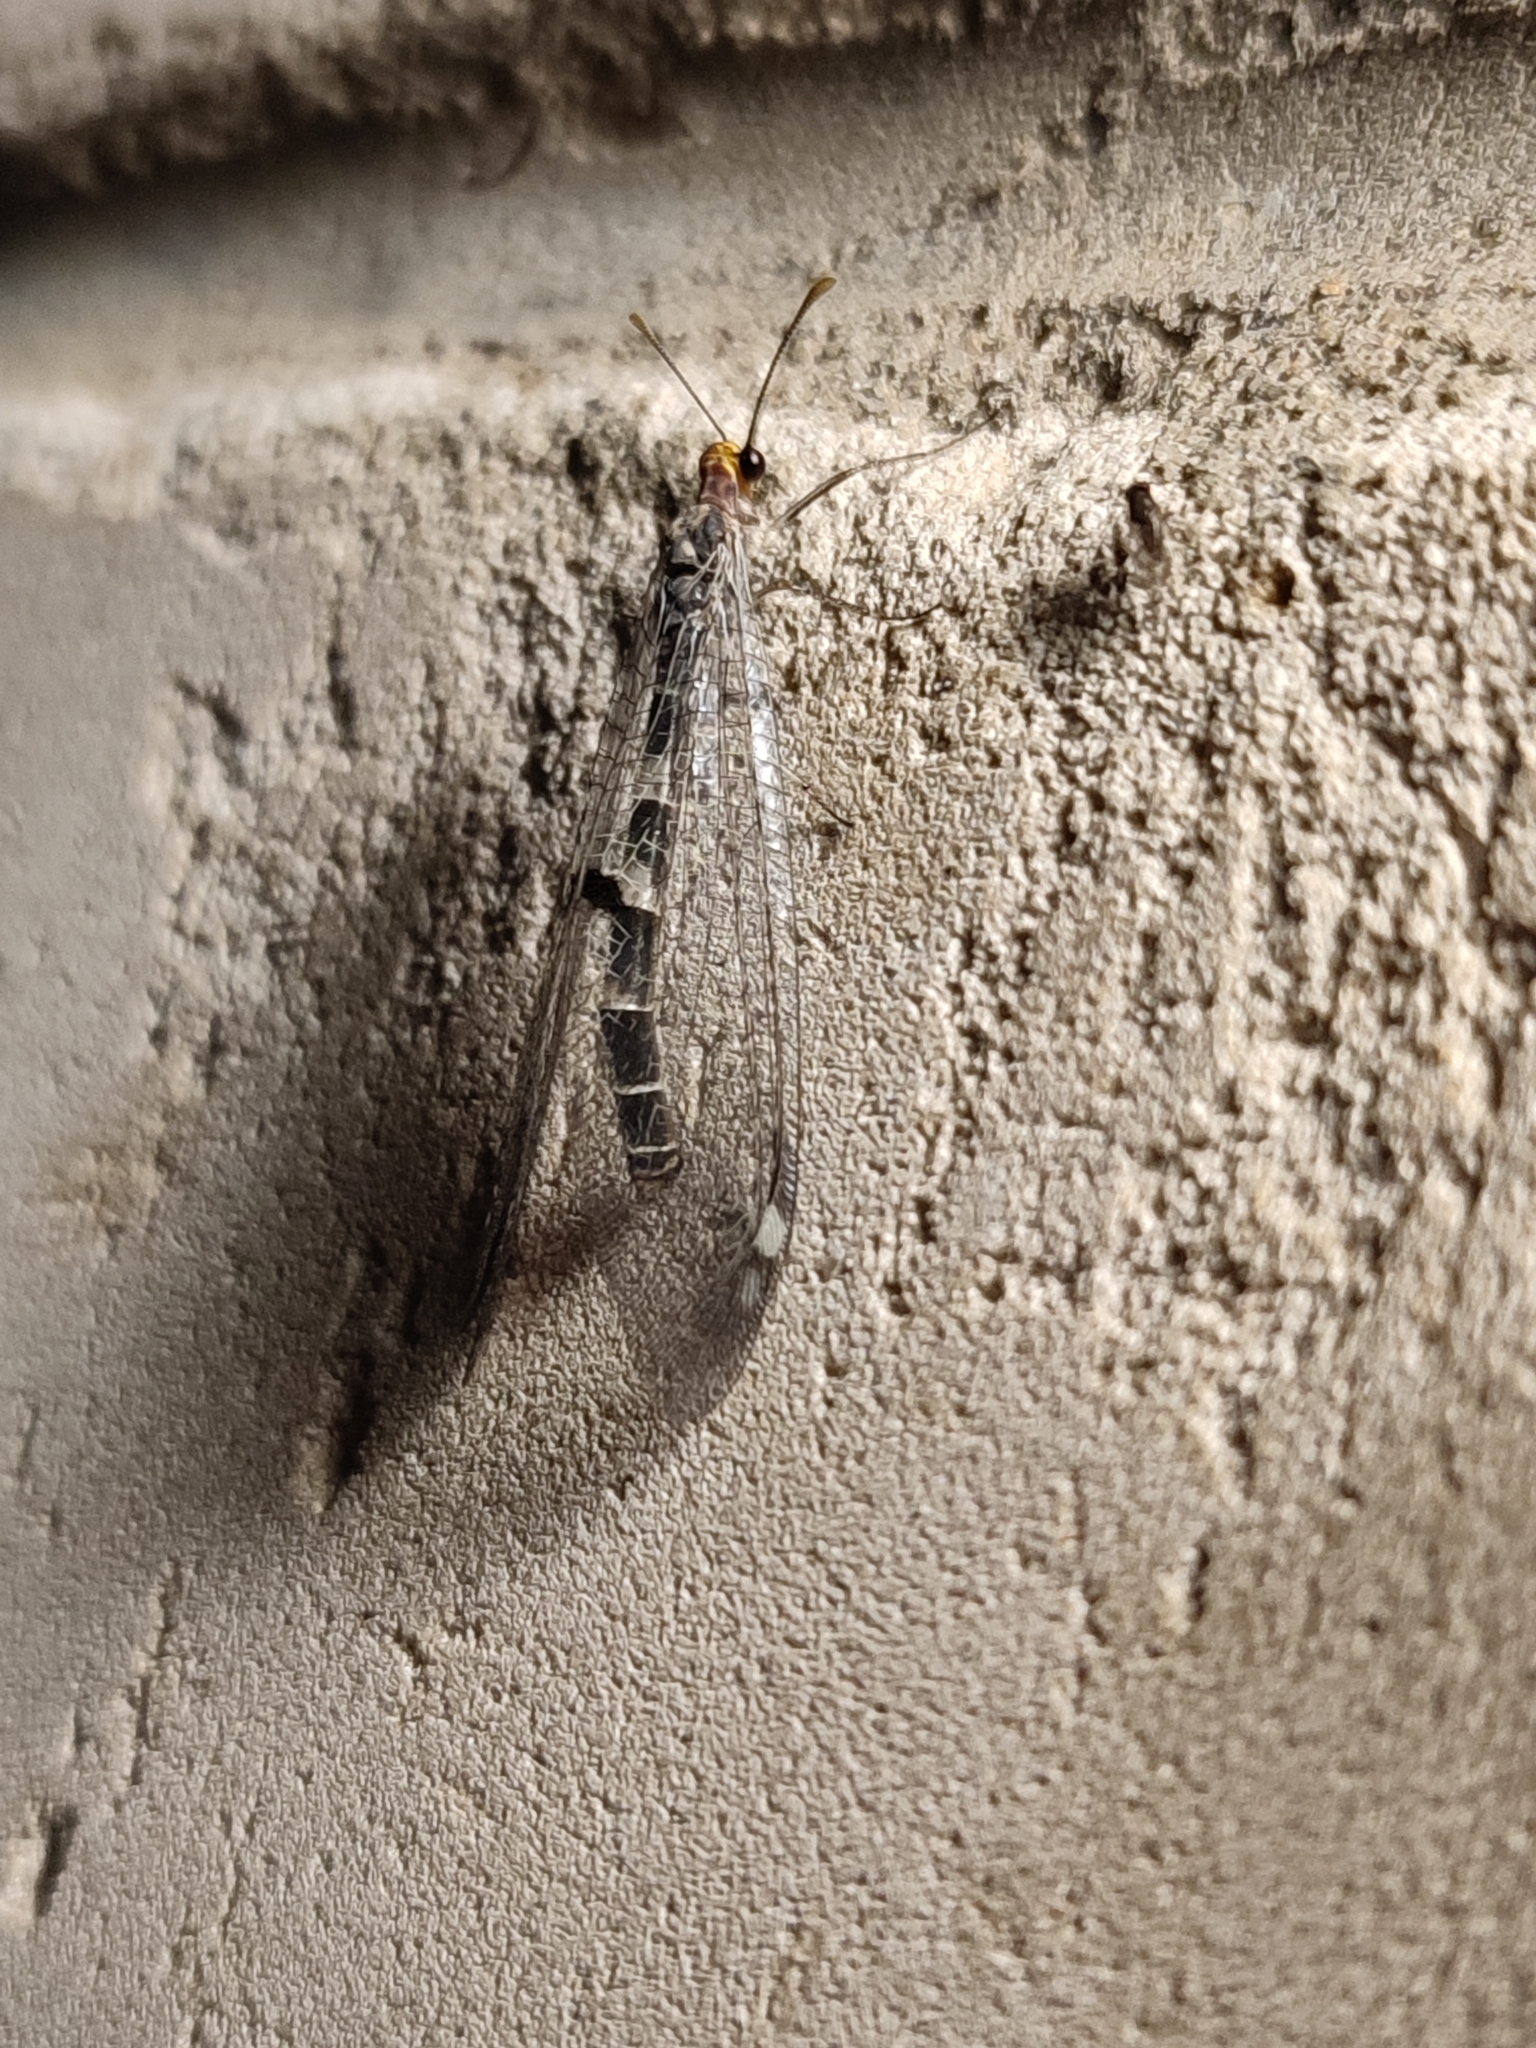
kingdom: Animalia
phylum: Arthropoda
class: Insecta
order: Neuroptera
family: Myrmeleontidae
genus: Megistopus
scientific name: Megistopus flavicornis
